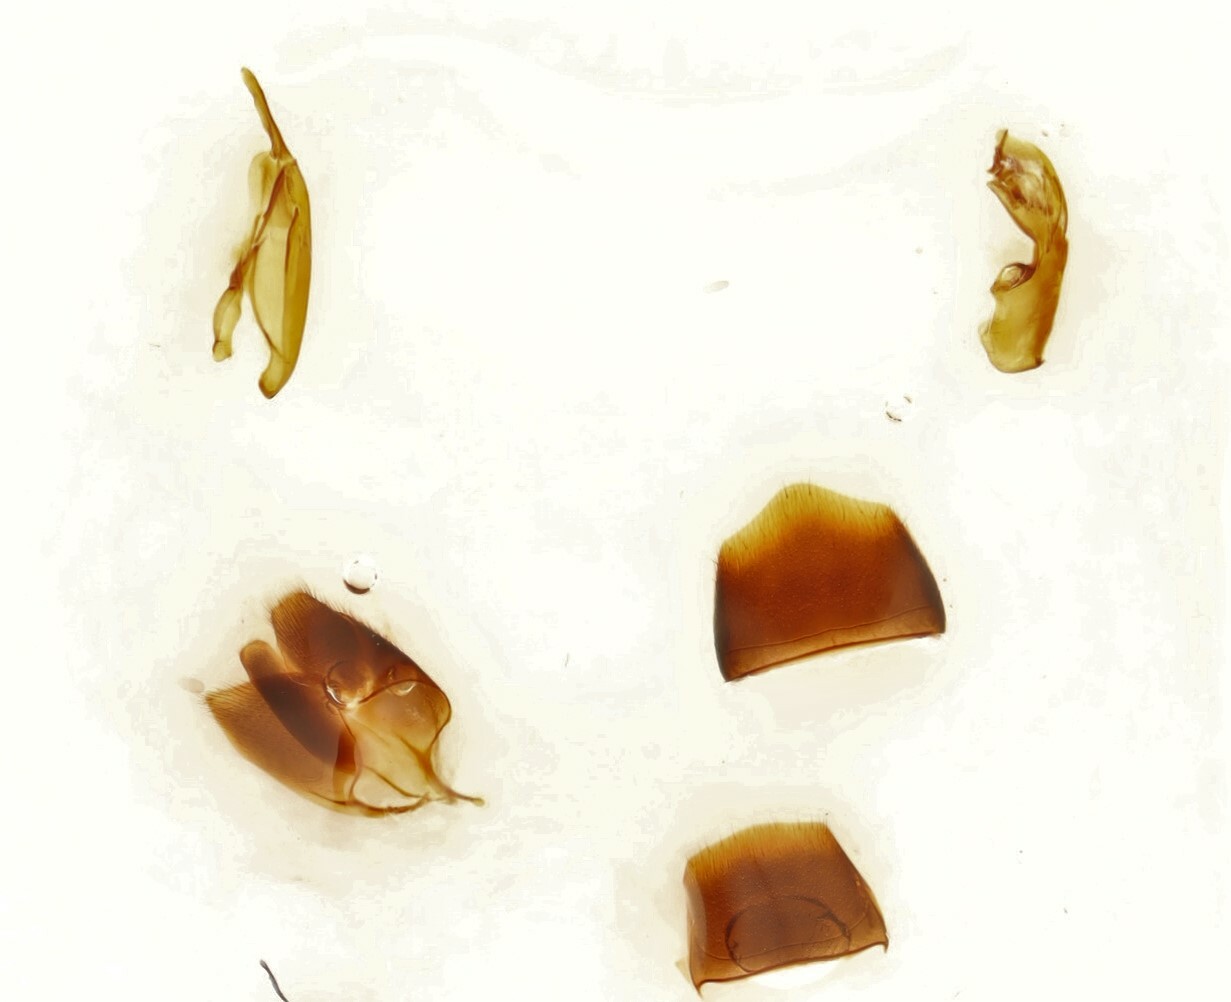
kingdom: Animalia
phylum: Arthropoda
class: Insecta
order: Coleoptera
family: Staphylinidae
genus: Devia
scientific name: Devia prospera
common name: Rove beetle
